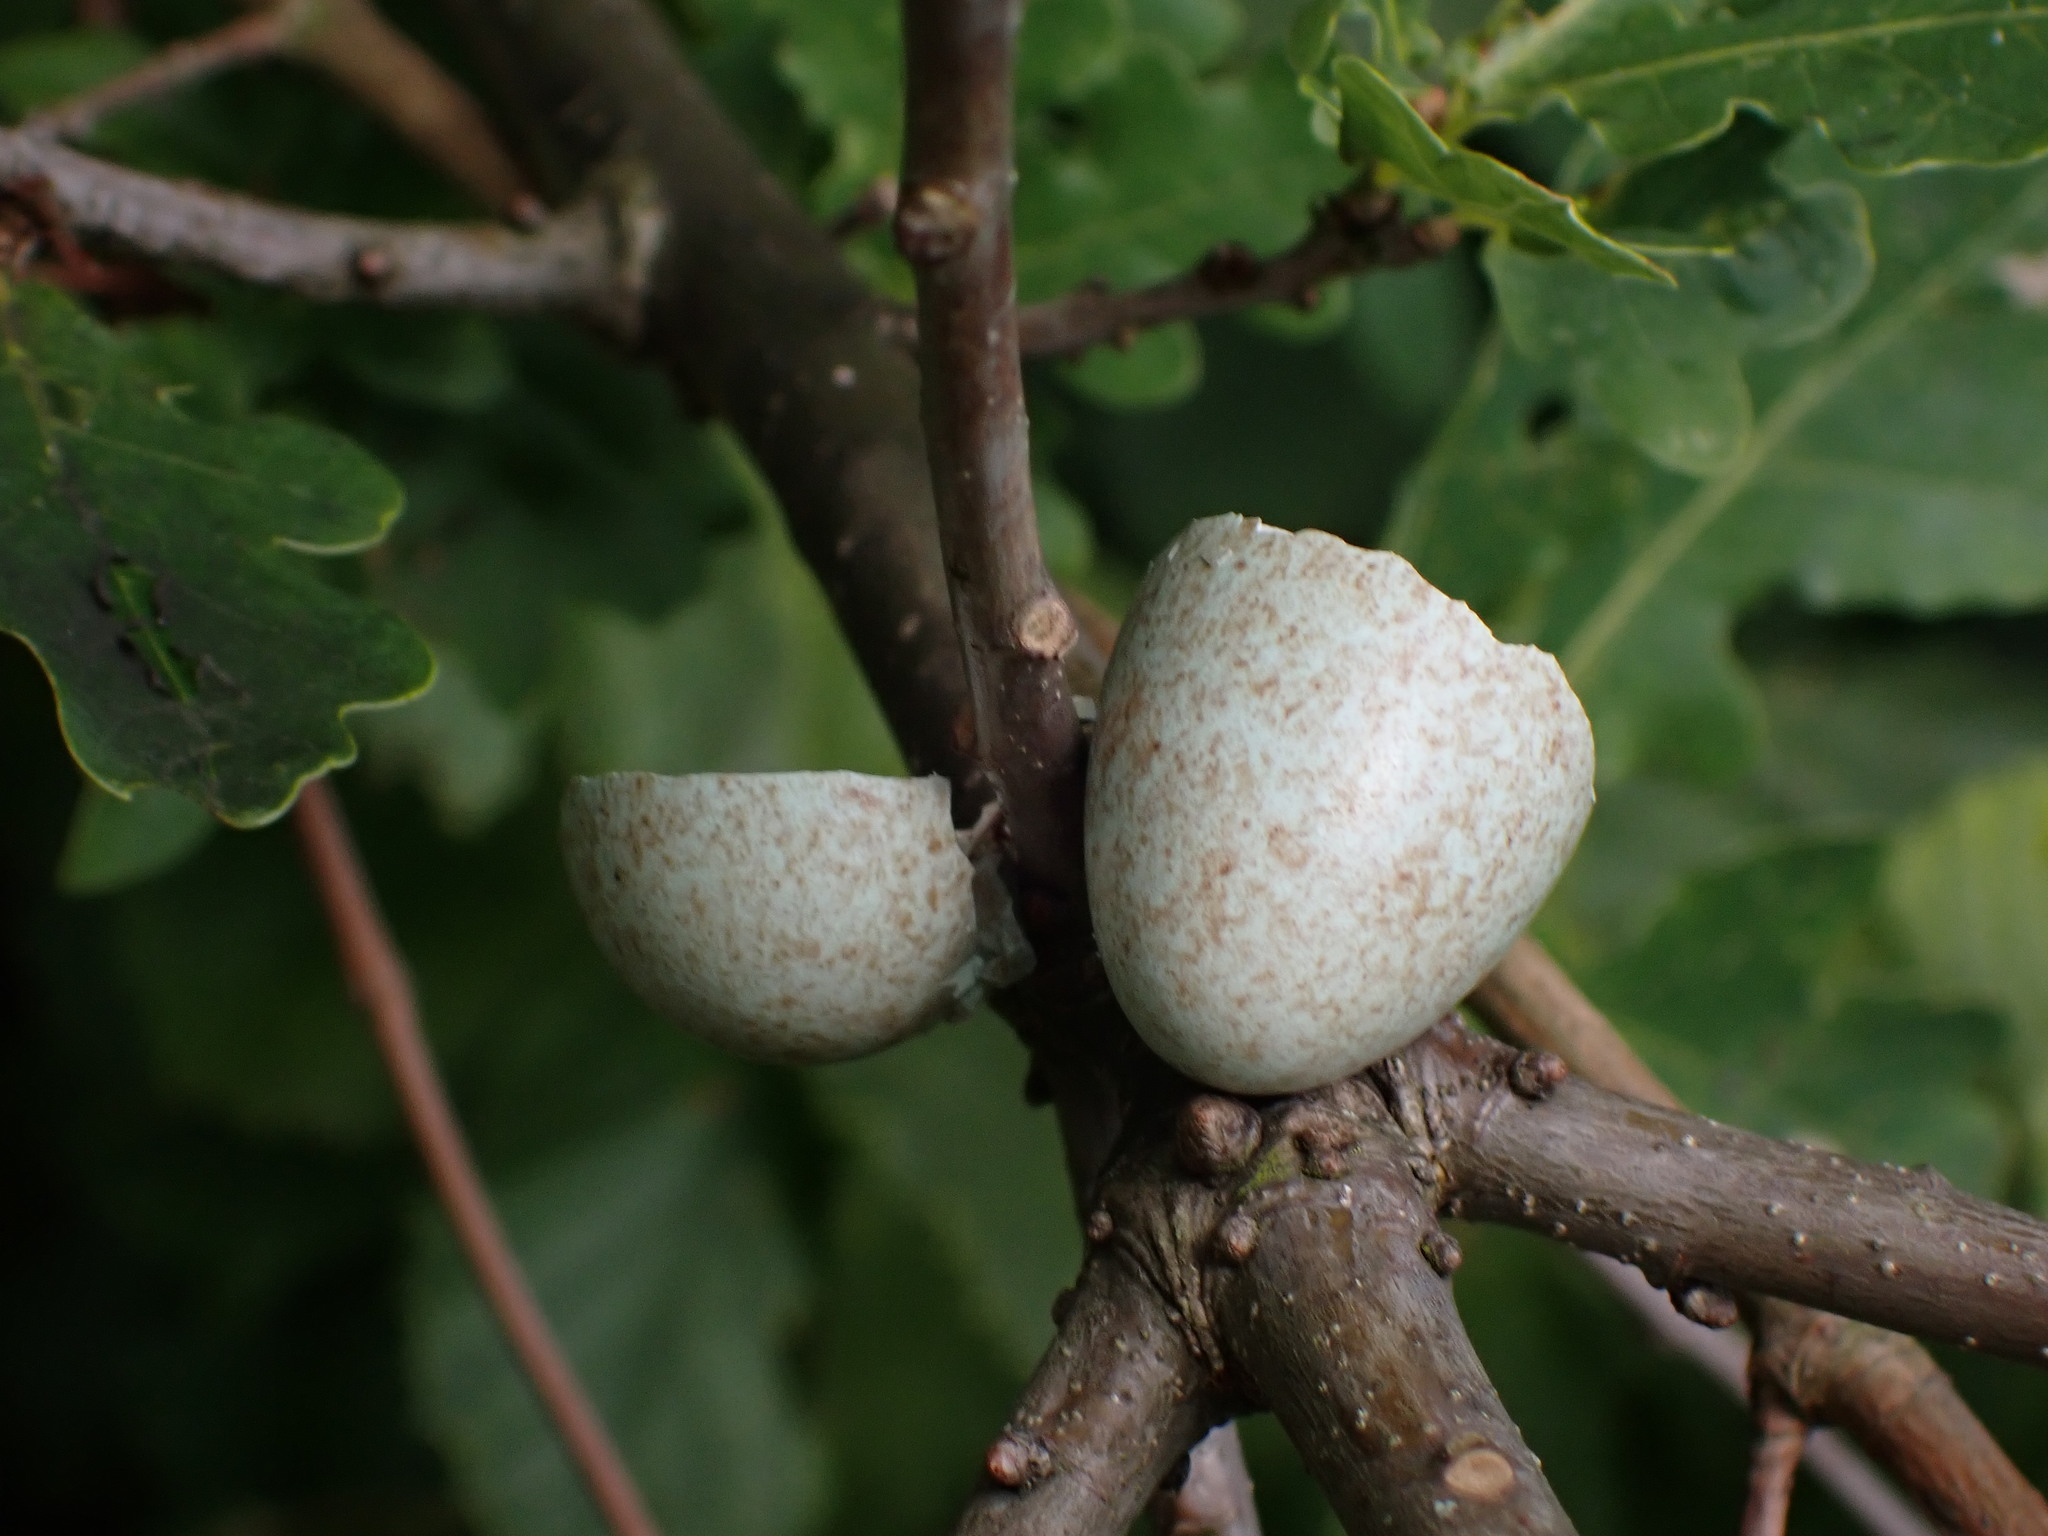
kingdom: Animalia
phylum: Chordata
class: Aves
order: Passeriformes
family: Turdidae
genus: Turdus
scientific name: Turdus merula
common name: Common blackbird
